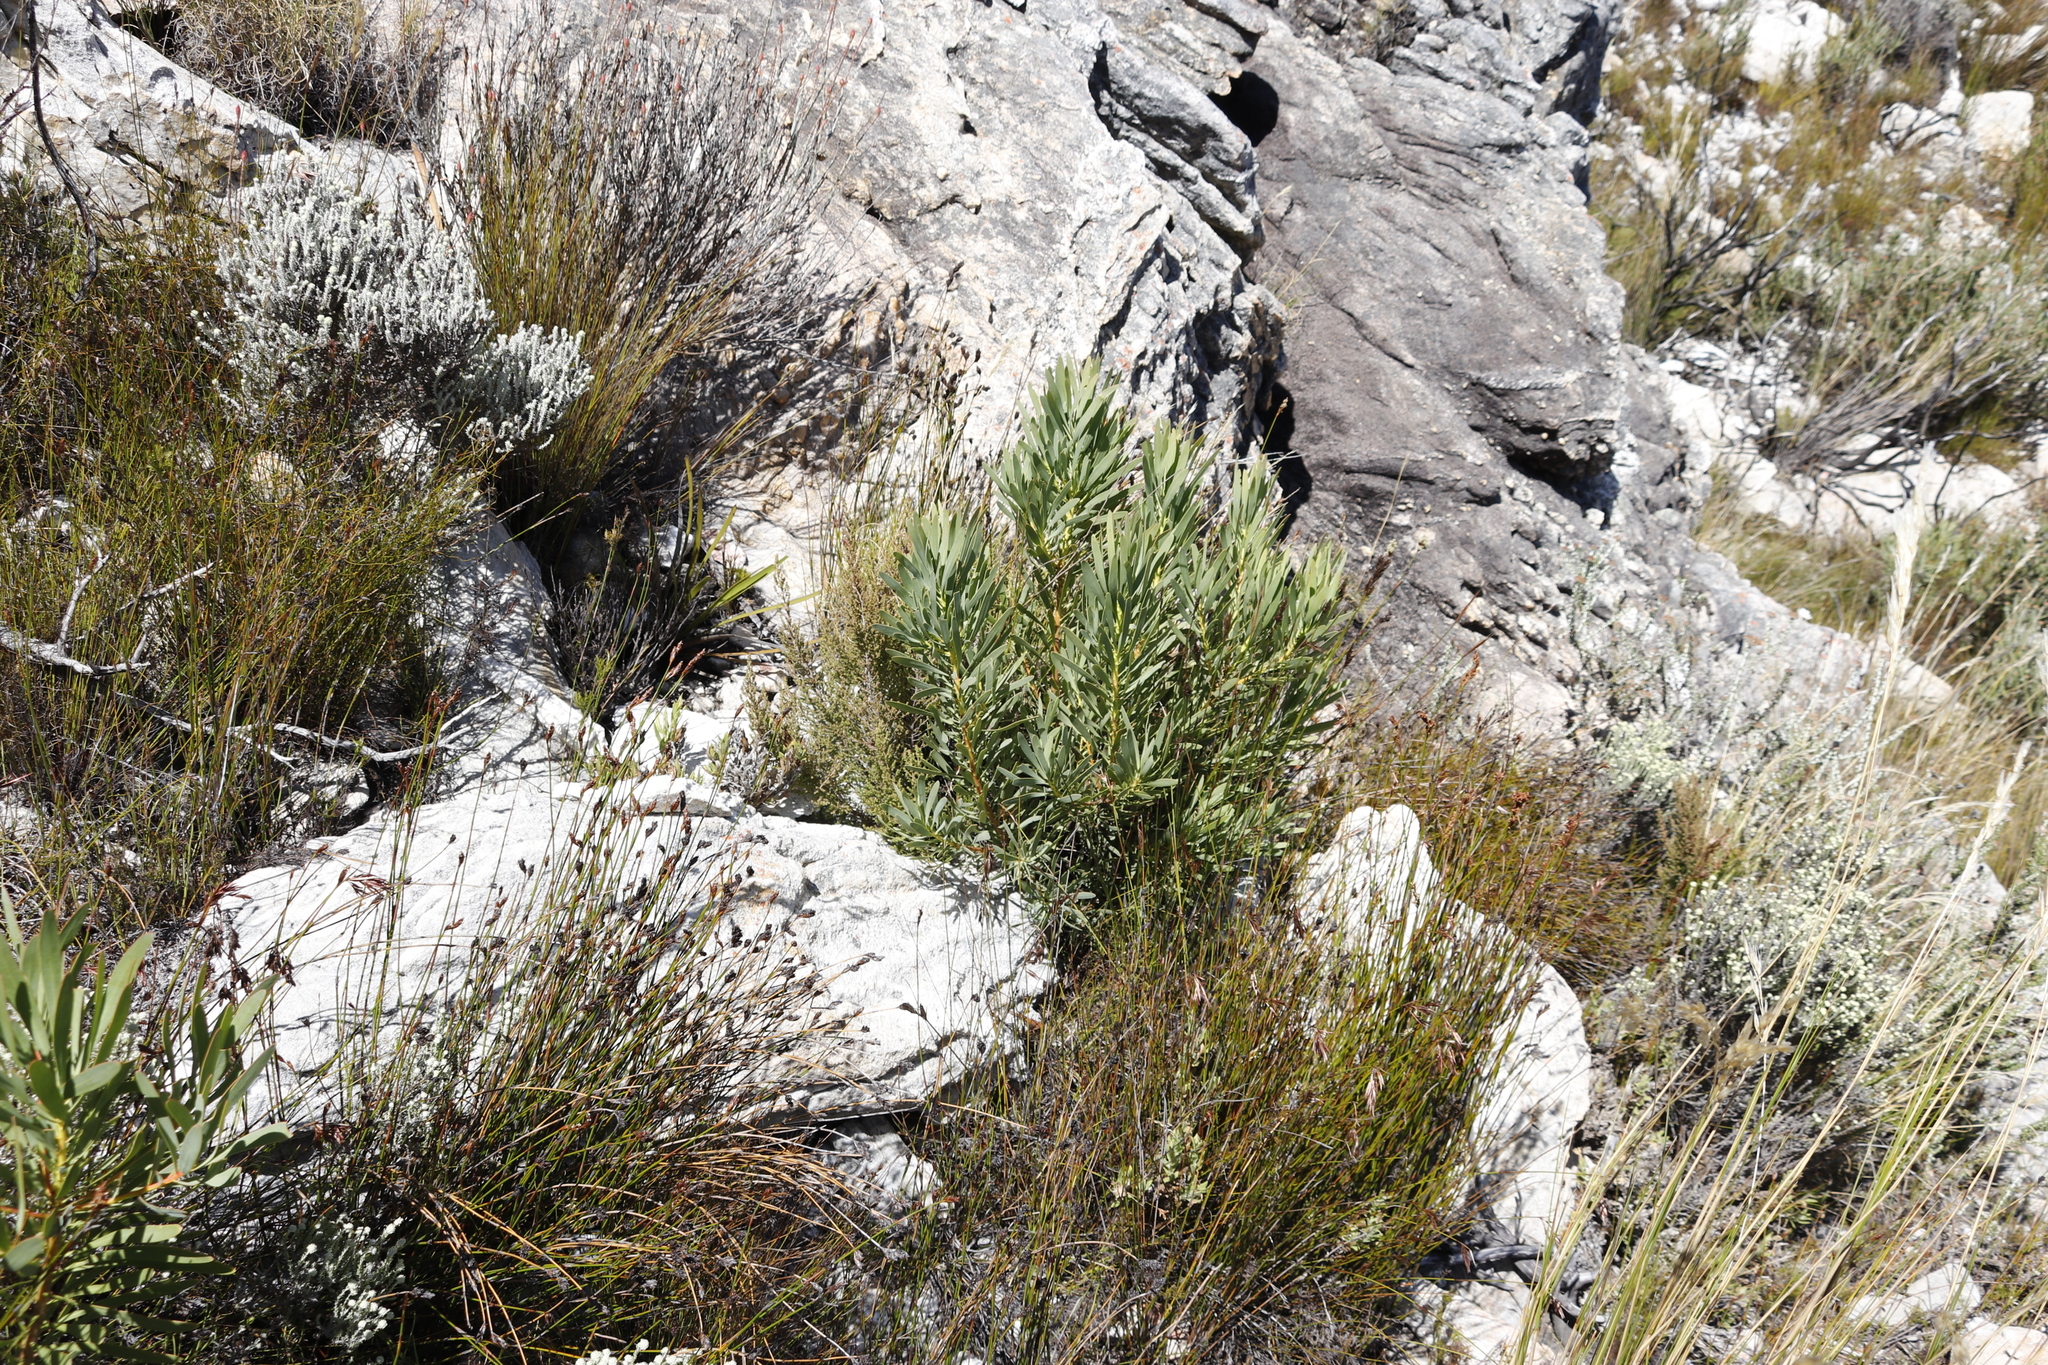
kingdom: Plantae
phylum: Tracheophyta
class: Magnoliopsida
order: Proteales
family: Proteaceae
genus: Protea
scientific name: Protea repens
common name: Sugarbush
